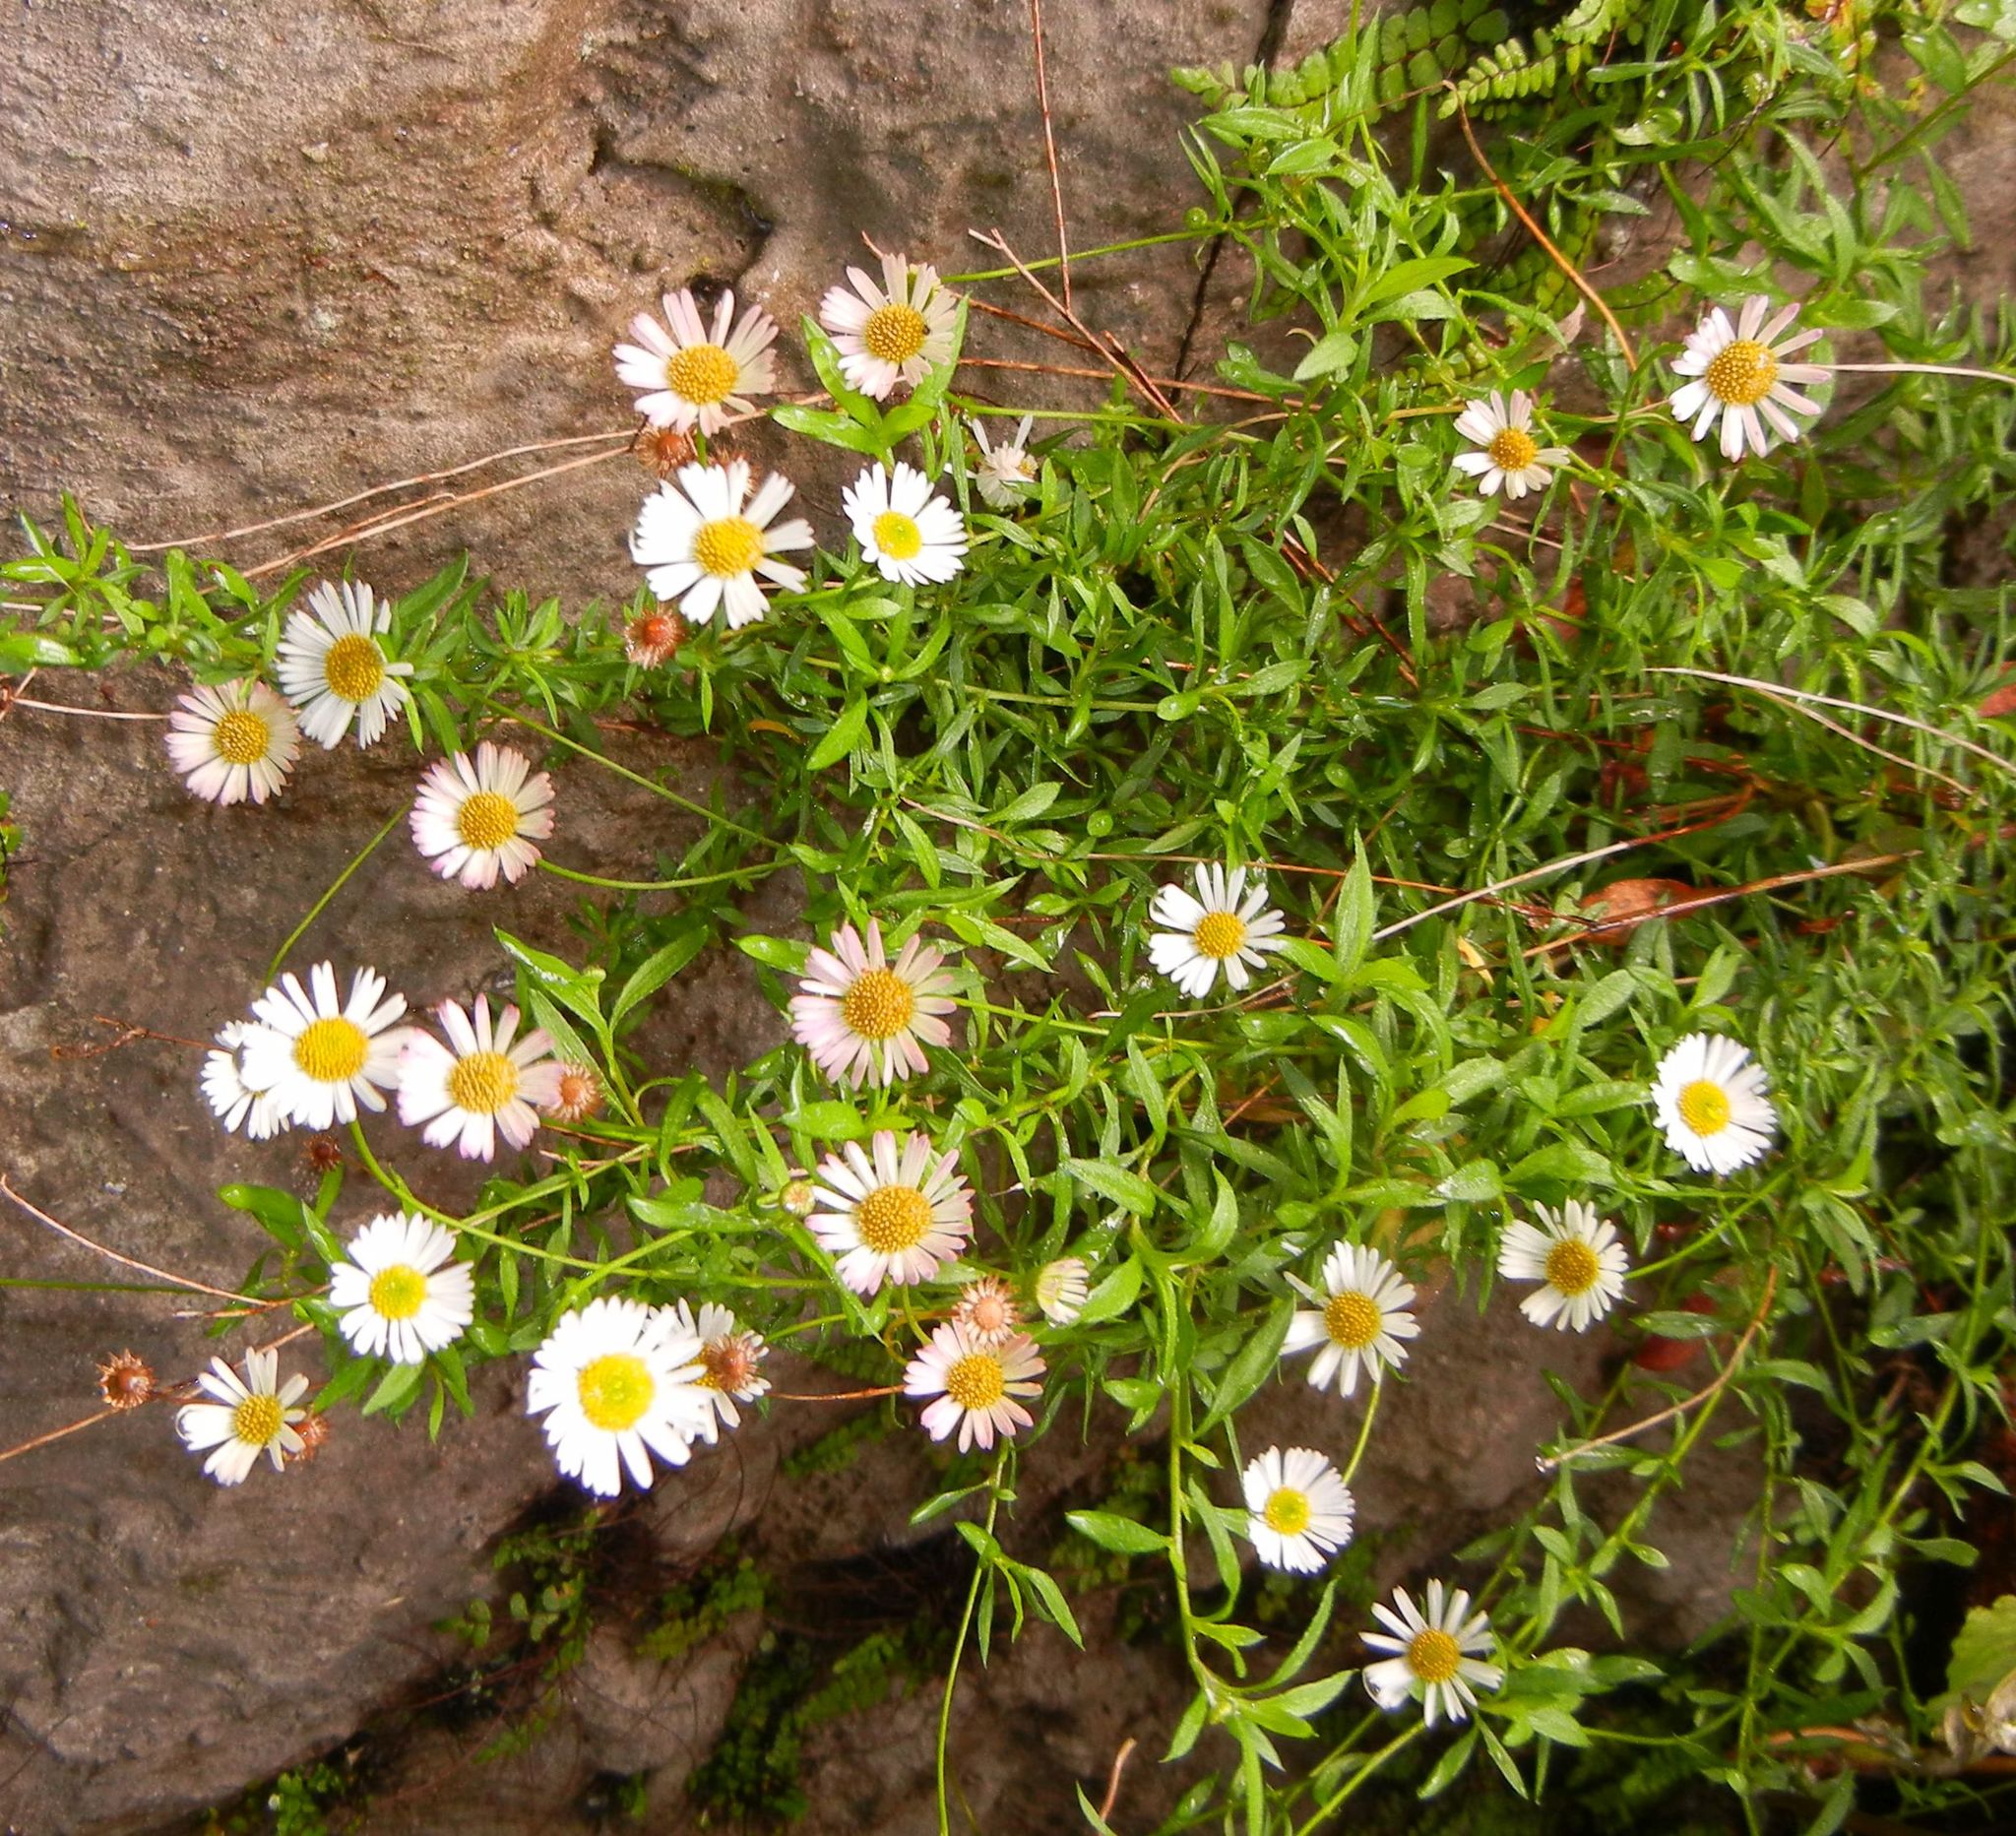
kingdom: Plantae
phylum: Tracheophyta
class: Magnoliopsida
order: Asterales
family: Asteraceae
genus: Erigeron
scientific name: Erigeron karvinskianus
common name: Mexican fleabane
